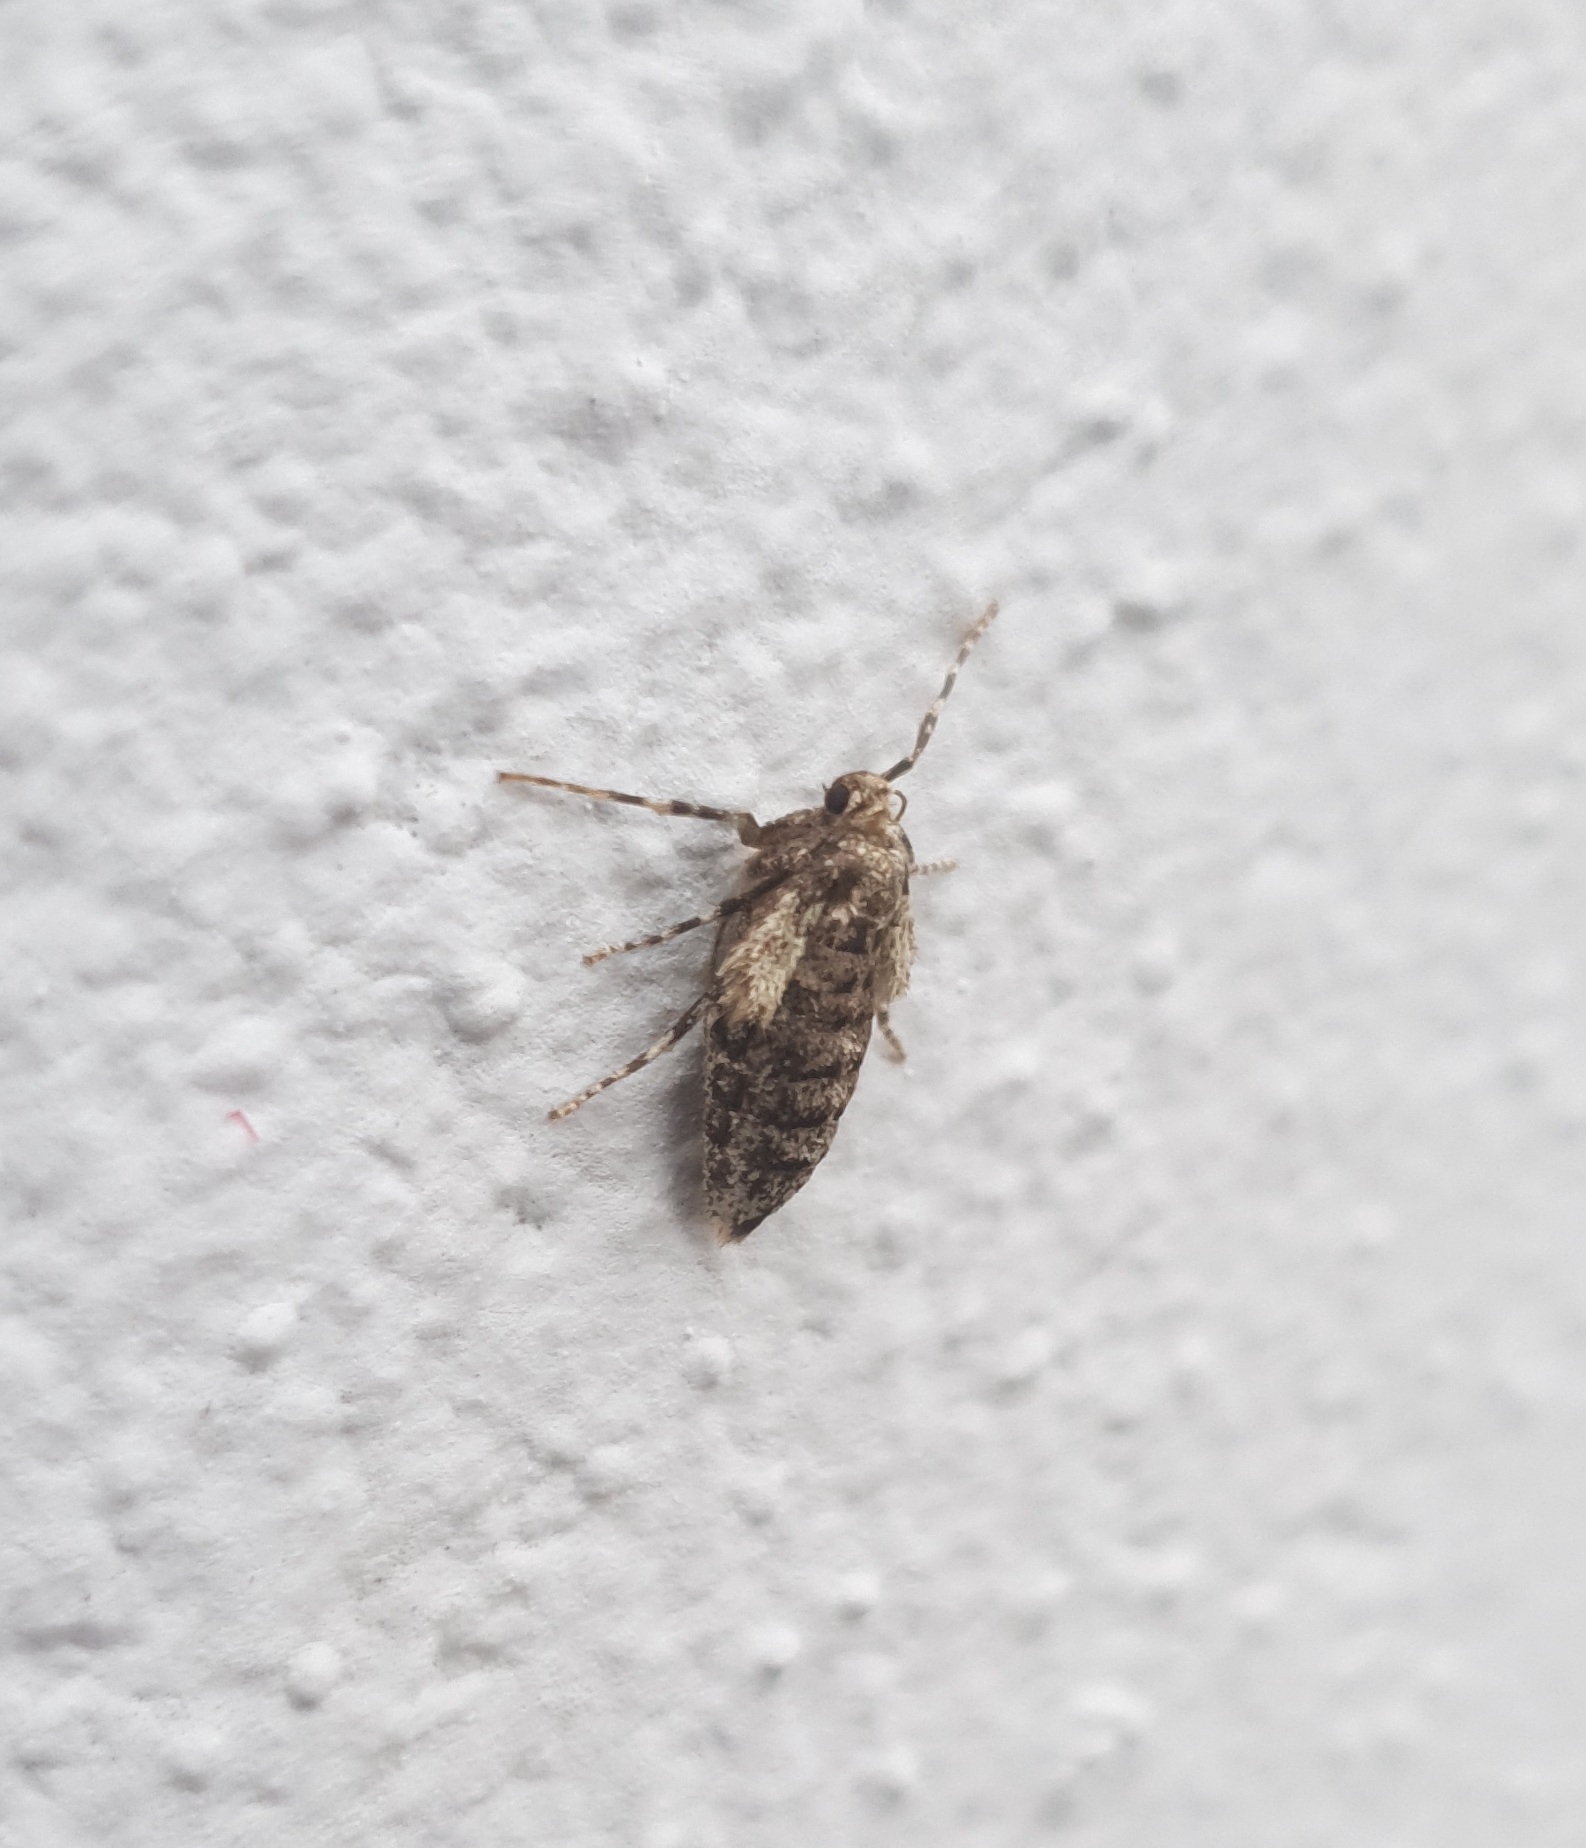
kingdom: Animalia
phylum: Arthropoda
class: Insecta
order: Lepidoptera
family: Geometridae
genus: Operophtera
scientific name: Operophtera brumata
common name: Winter moth
